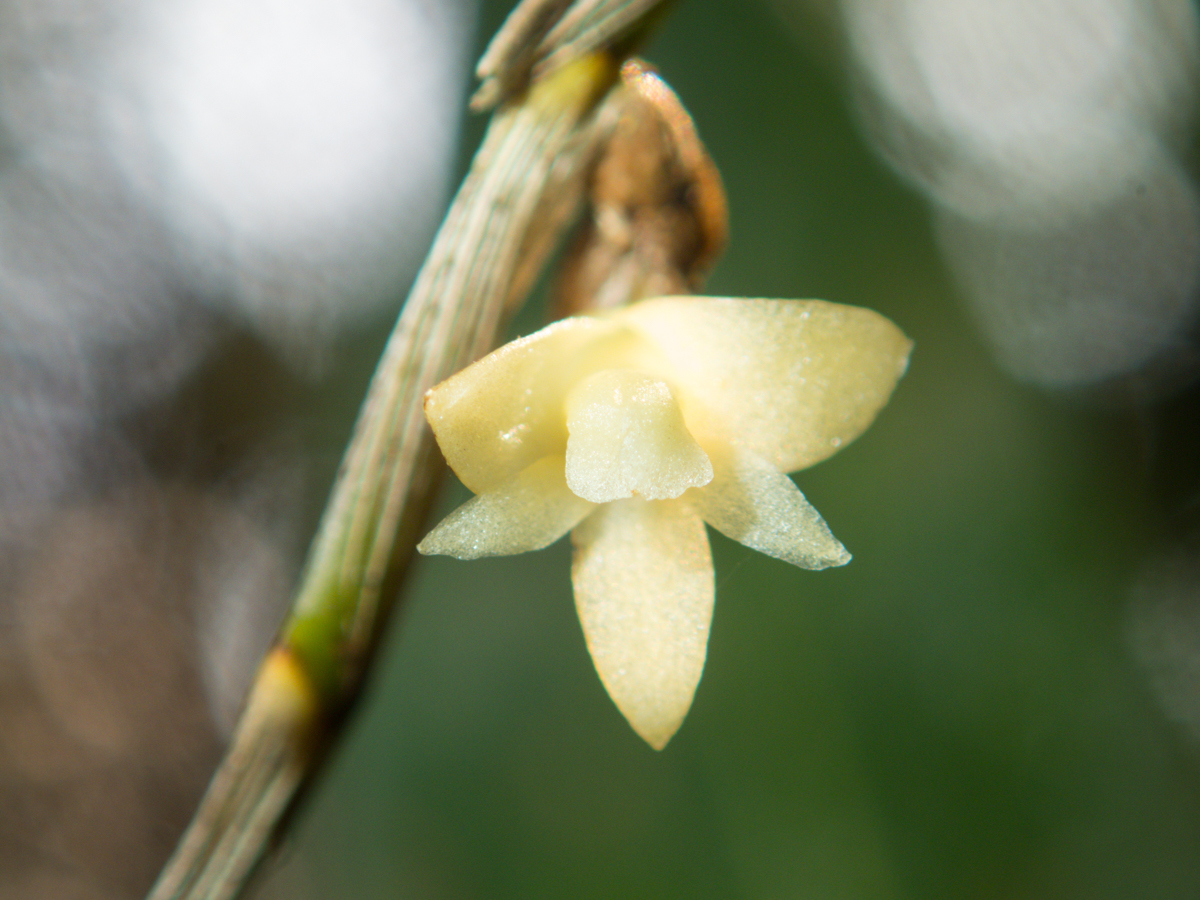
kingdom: Plantae
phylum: Tracheophyta
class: Liliopsida
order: Asparagales
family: Orchidaceae
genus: Dendrobium
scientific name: Dendrobium aloifolium
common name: Aloe-like dendrobium
